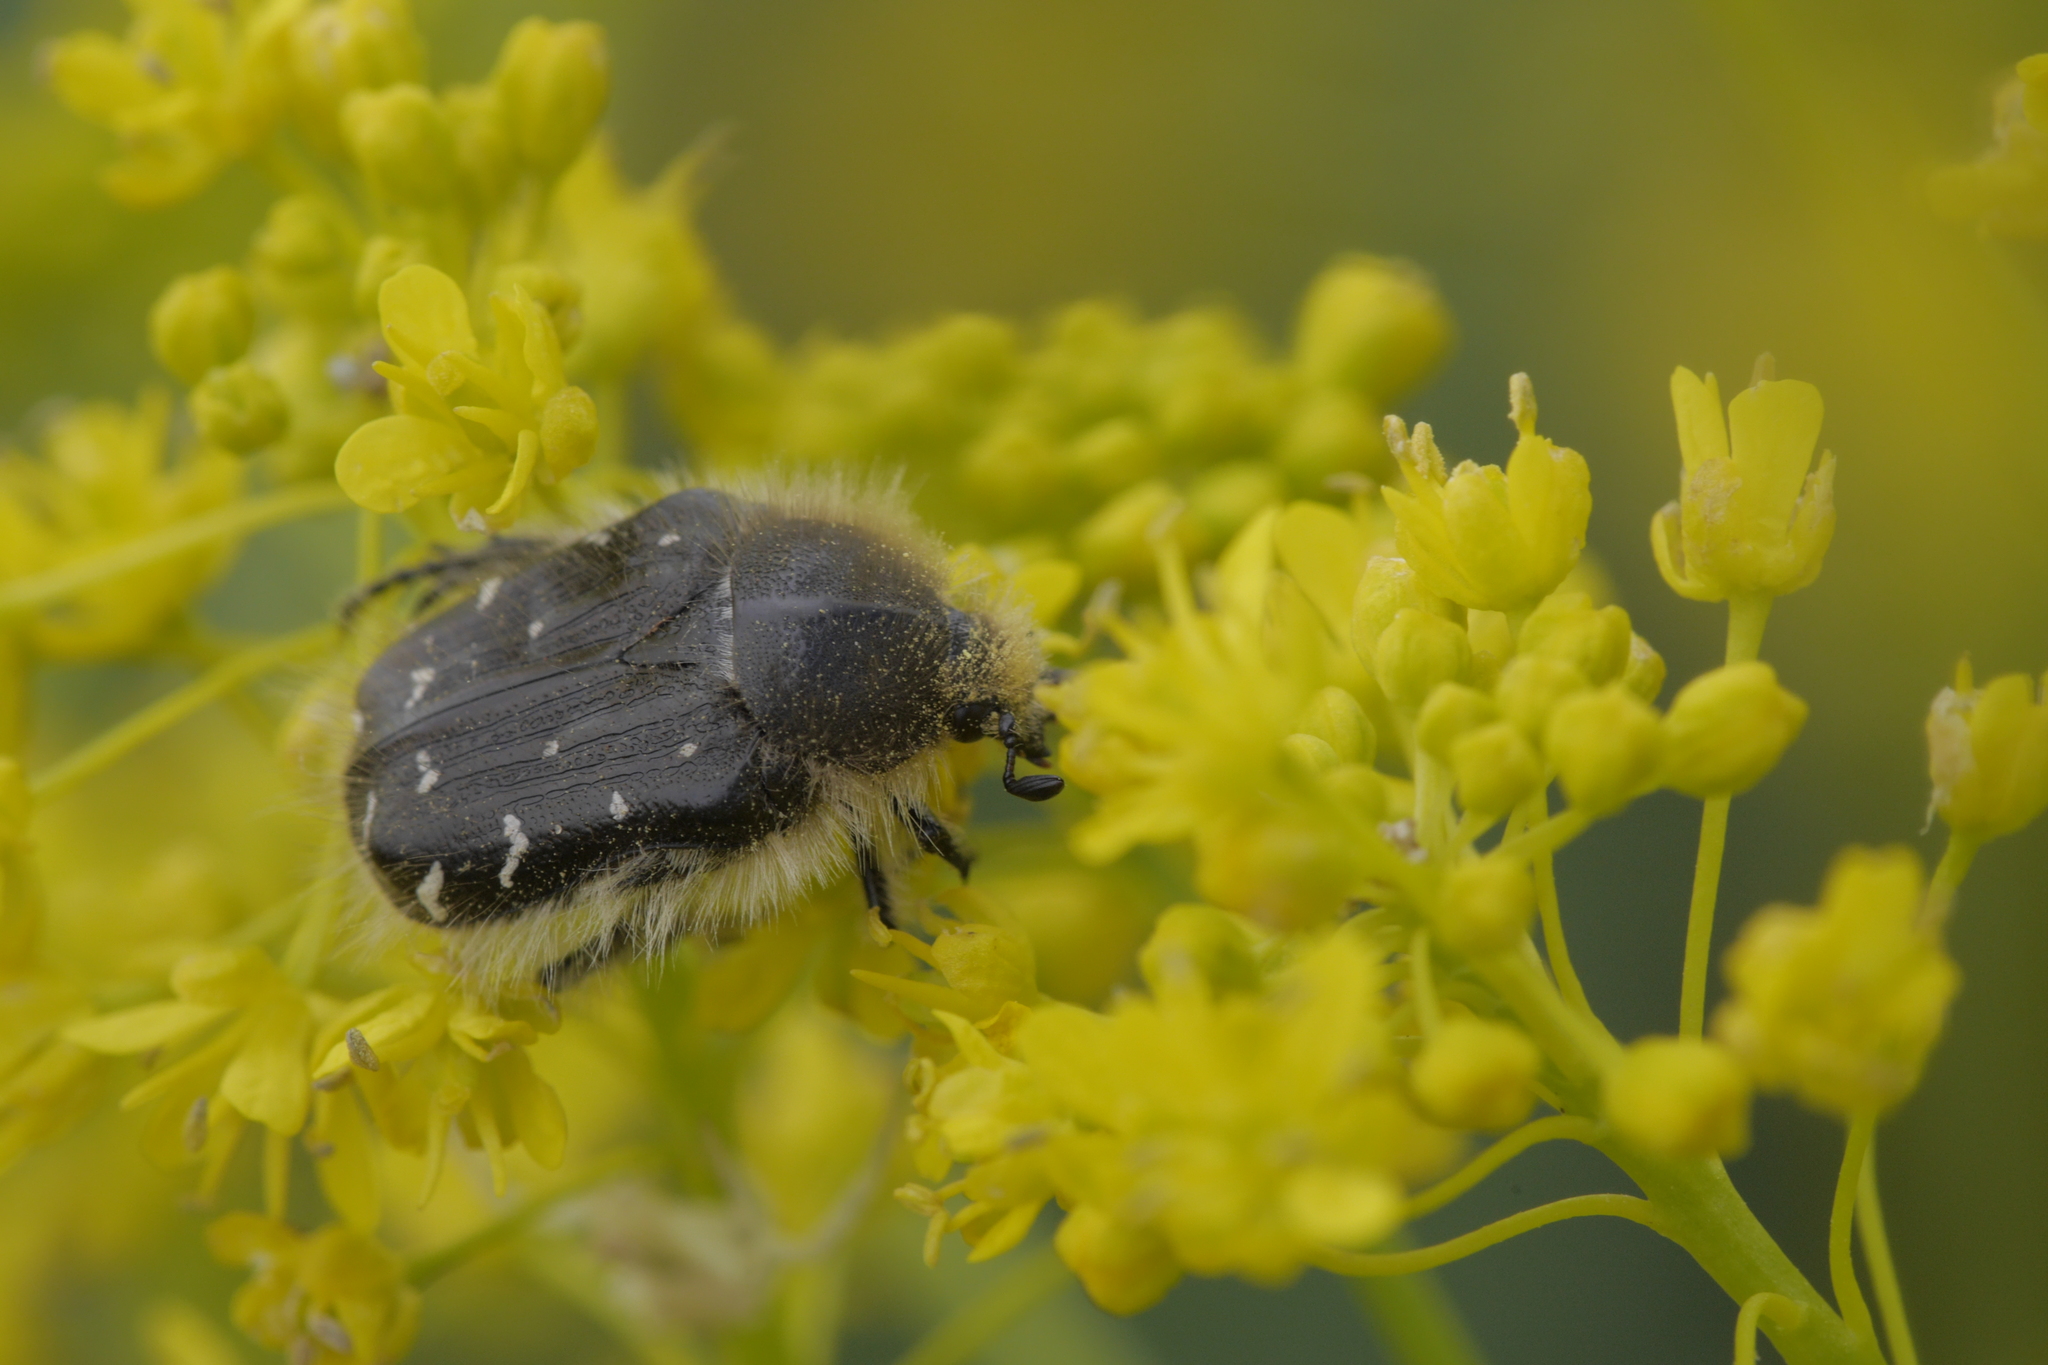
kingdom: Animalia
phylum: Arthropoda
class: Insecta
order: Coleoptera
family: Scarabaeidae
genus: Tropinota
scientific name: Tropinota hirta
